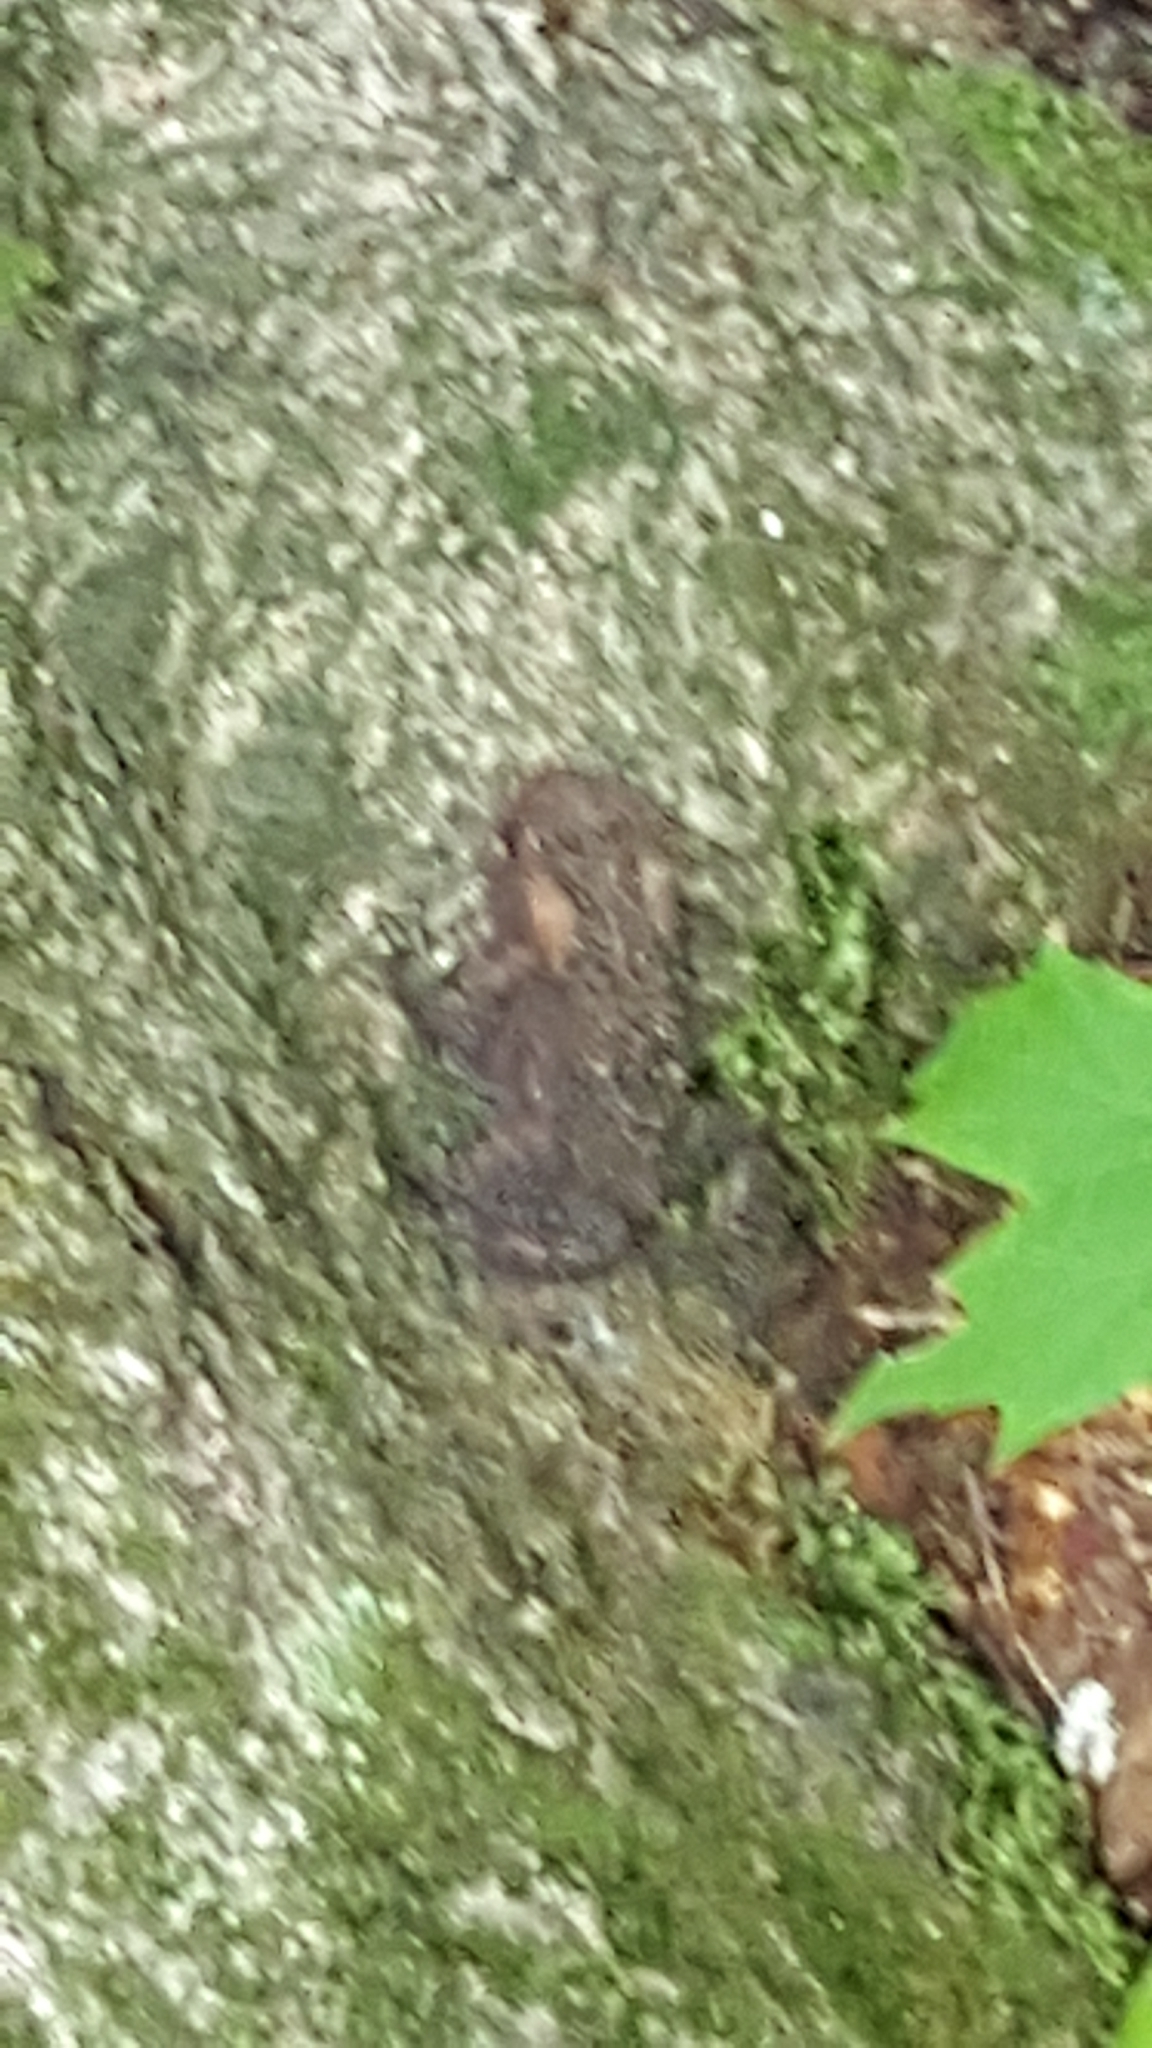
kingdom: Animalia
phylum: Chordata
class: Amphibia
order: Anura
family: Bufonidae
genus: Anaxyrus
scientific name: Anaxyrus americanus
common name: American toad
